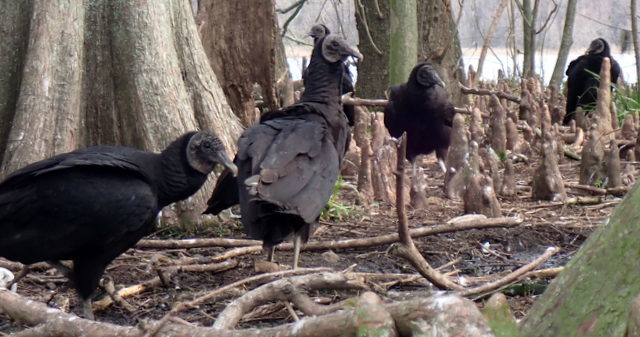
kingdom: Animalia
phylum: Chordata
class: Aves
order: Accipitriformes
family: Cathartidae
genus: Coragyps
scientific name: Coragyps atratus
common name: Black vulture
